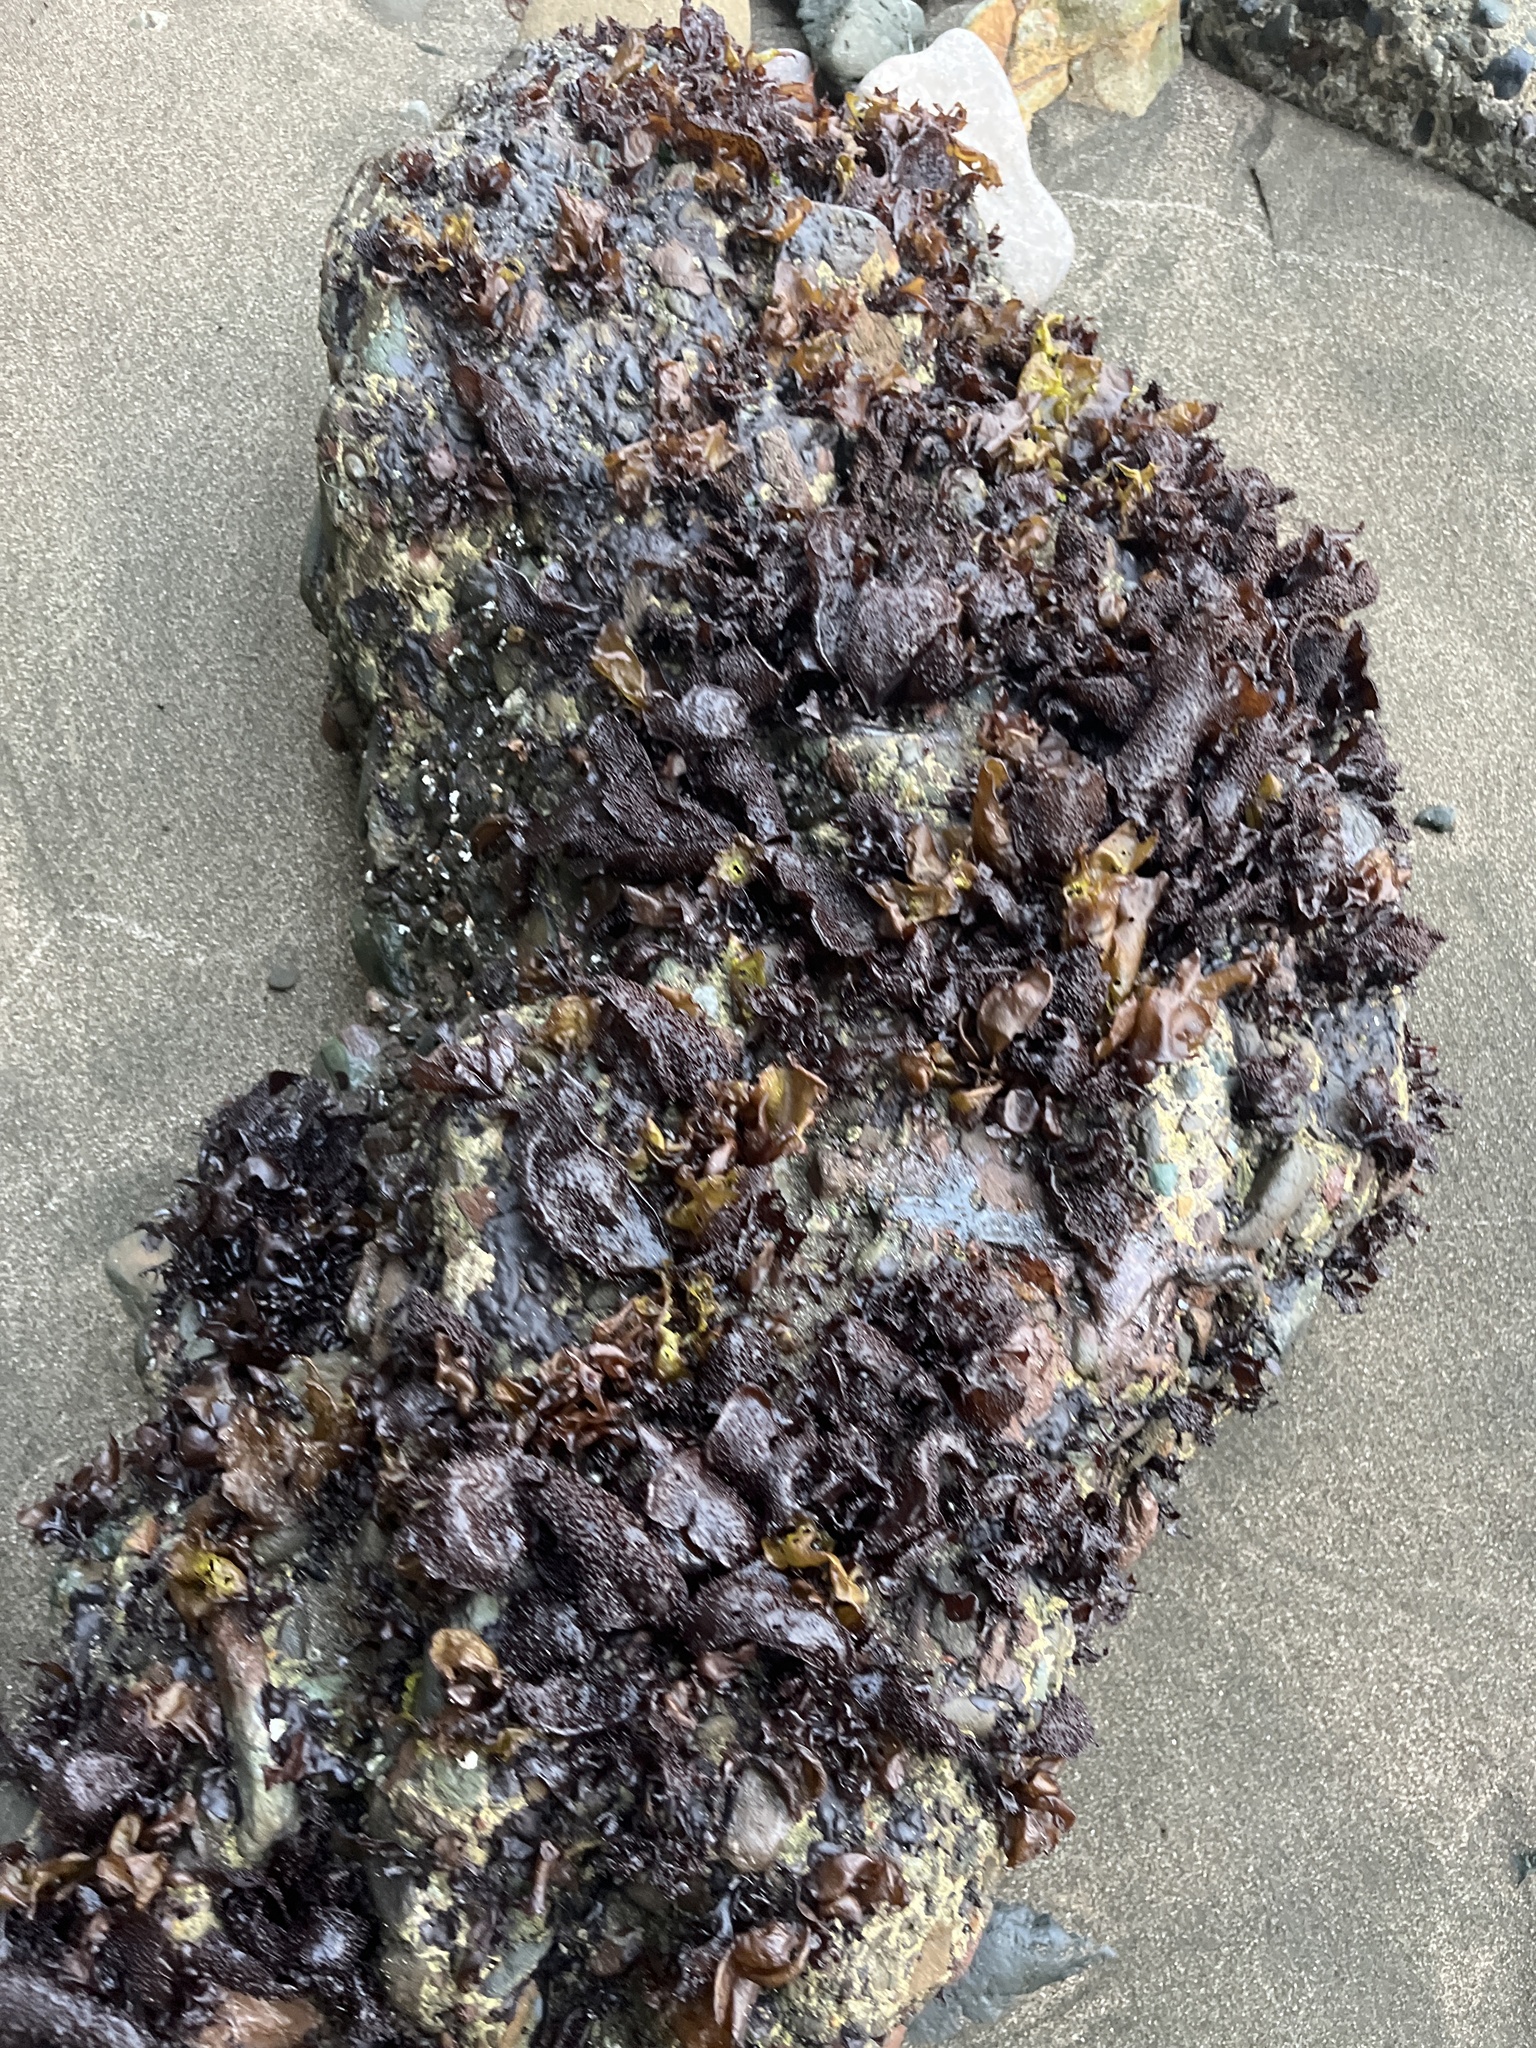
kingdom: Plantae
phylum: Rhodophyta
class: Florideophyceae
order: Gigartinales
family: Phyllophoraceae
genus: Mastocarpus
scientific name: Mastocarpus papillatus
